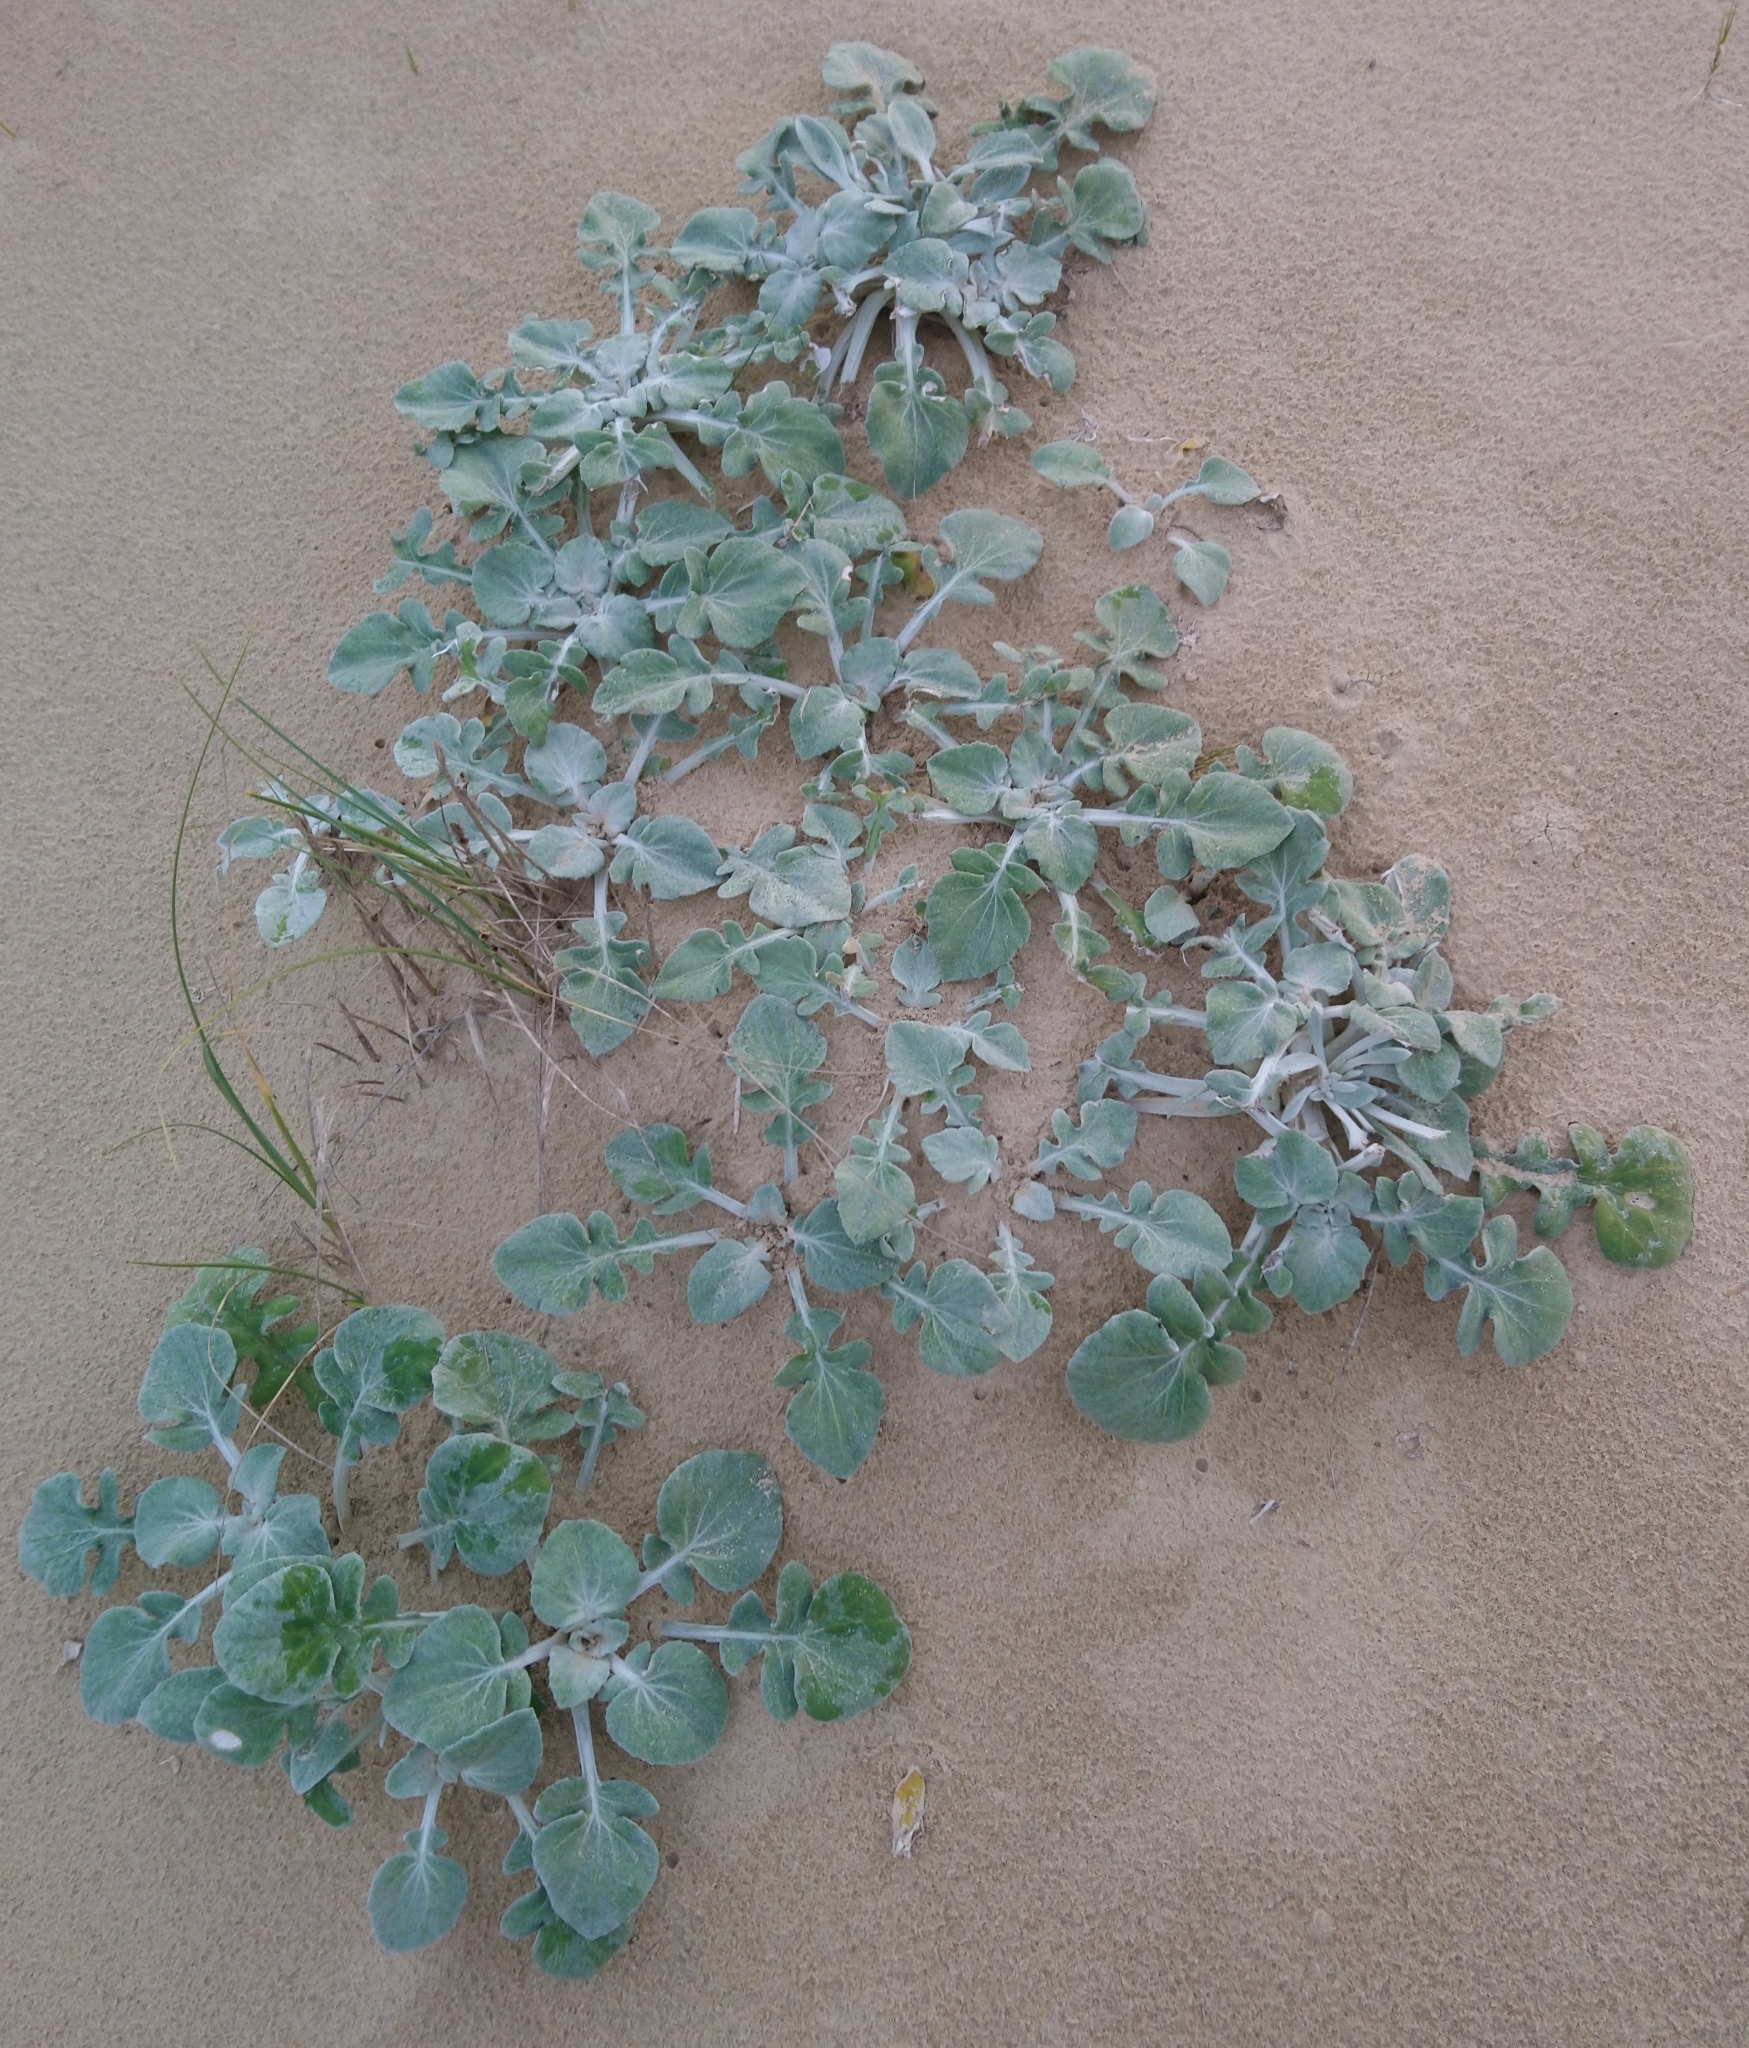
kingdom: Plantae
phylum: Tracheophyta
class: Magnoliopsida
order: Asterales
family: Asteraceae
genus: Arctotheca
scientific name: Arctotheca populifolia
